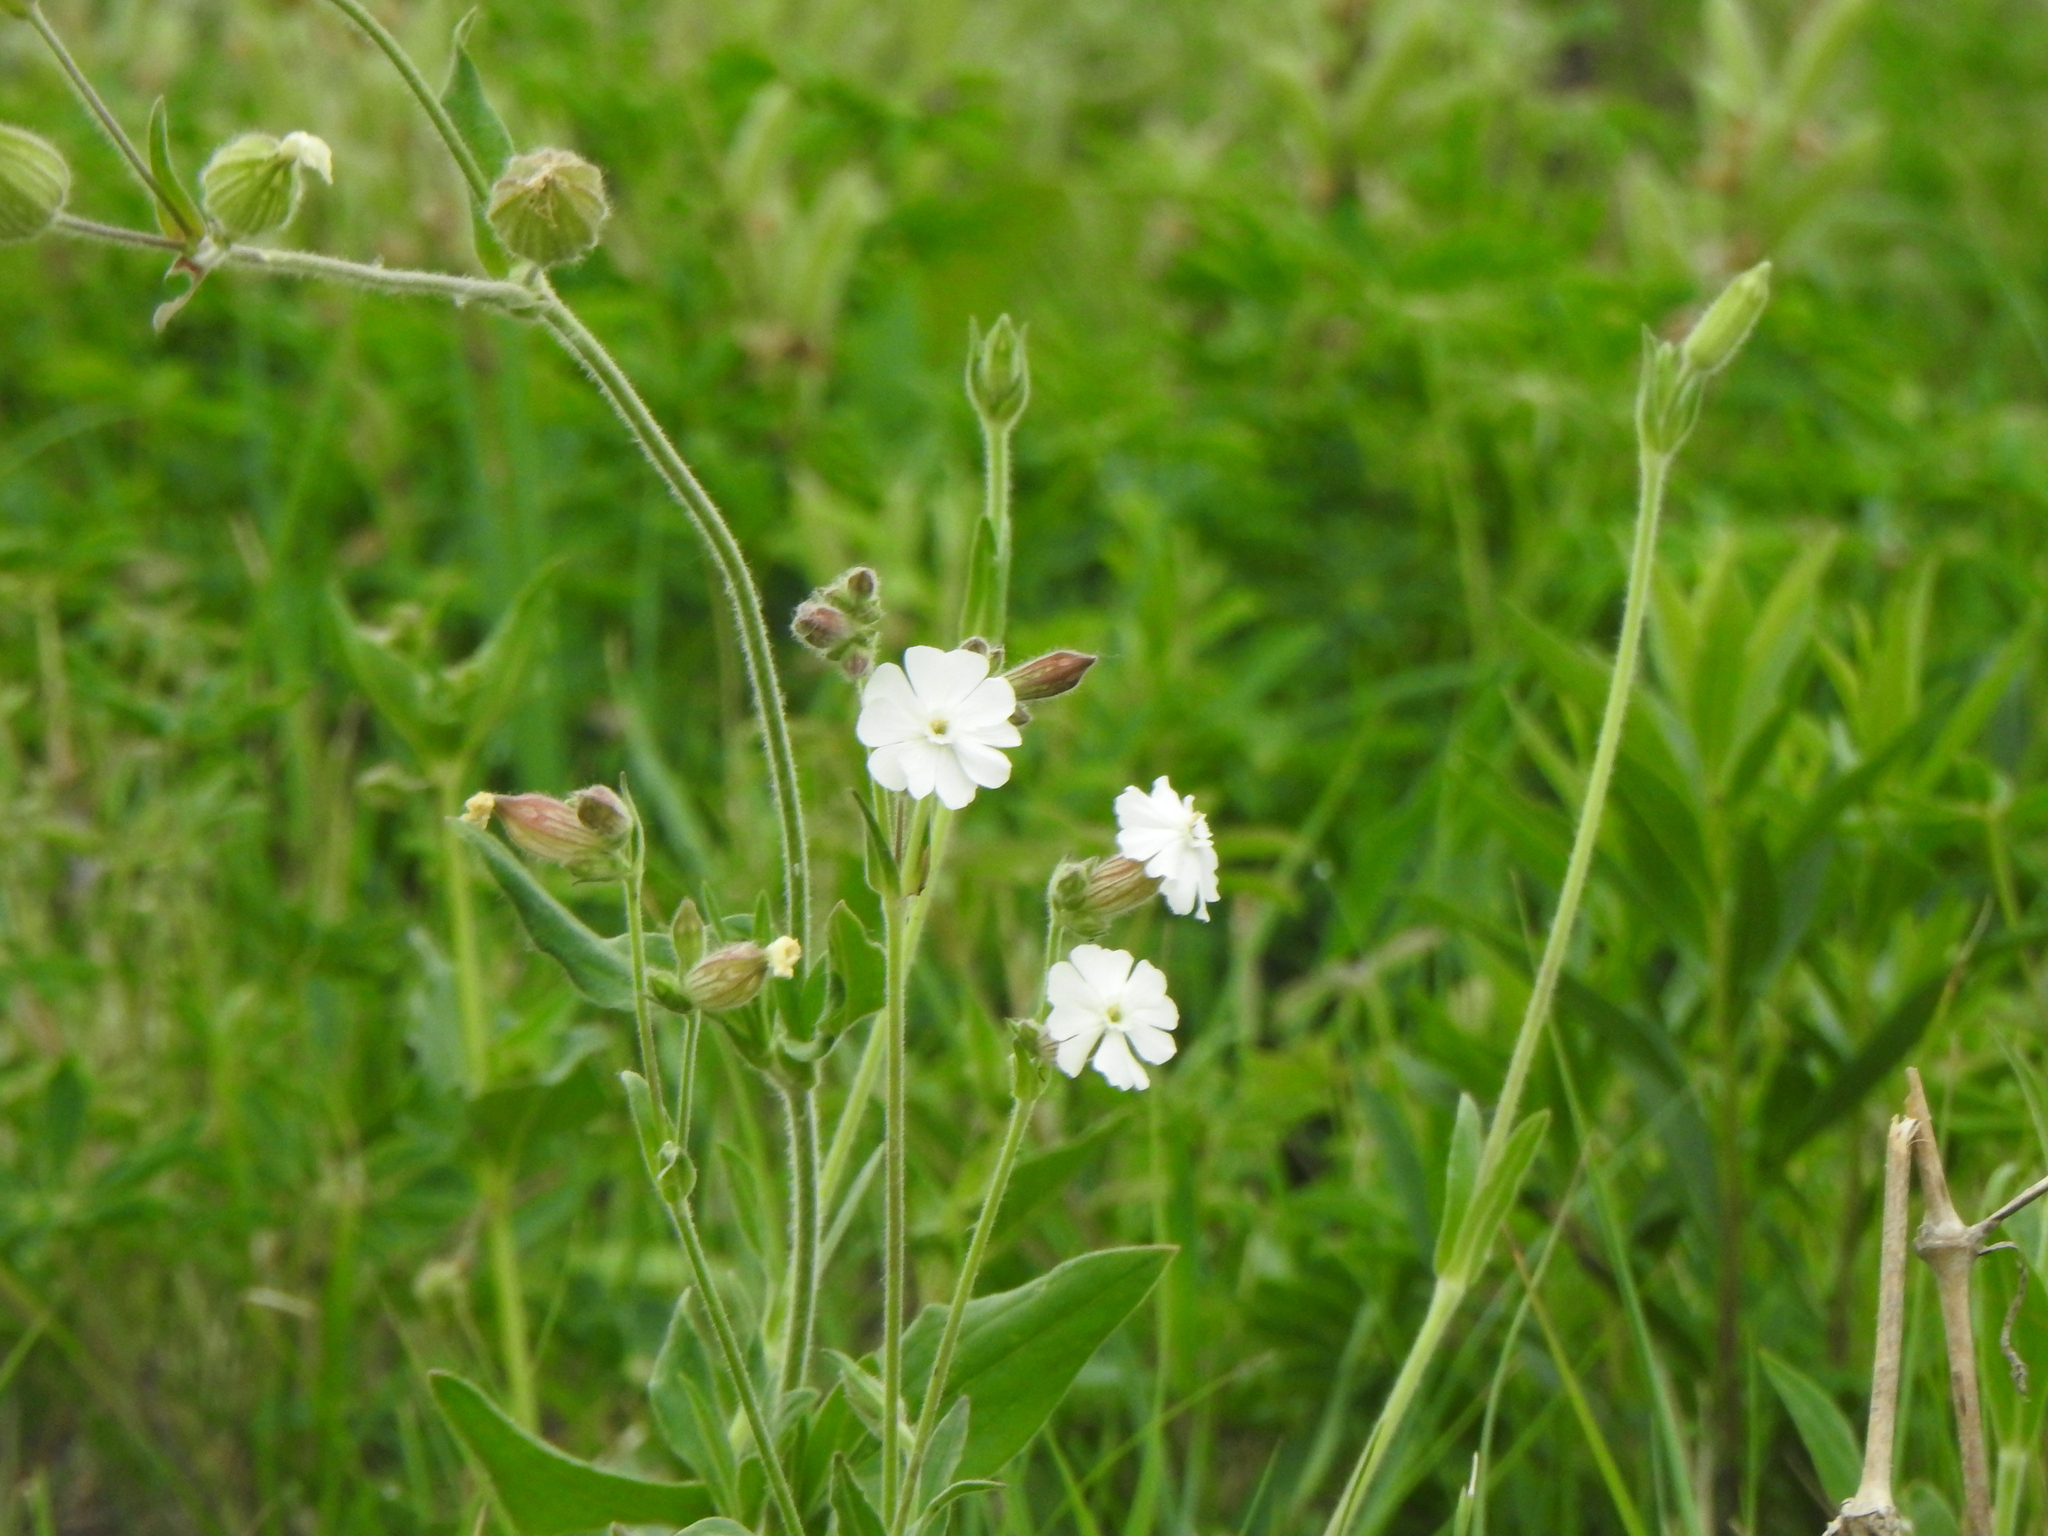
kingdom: Plantae
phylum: Tracheophyta
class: Magnoliopsida
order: Caryophyllales
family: Caryophyllaceae
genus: Silene
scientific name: Silene latifolia
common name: White campion
